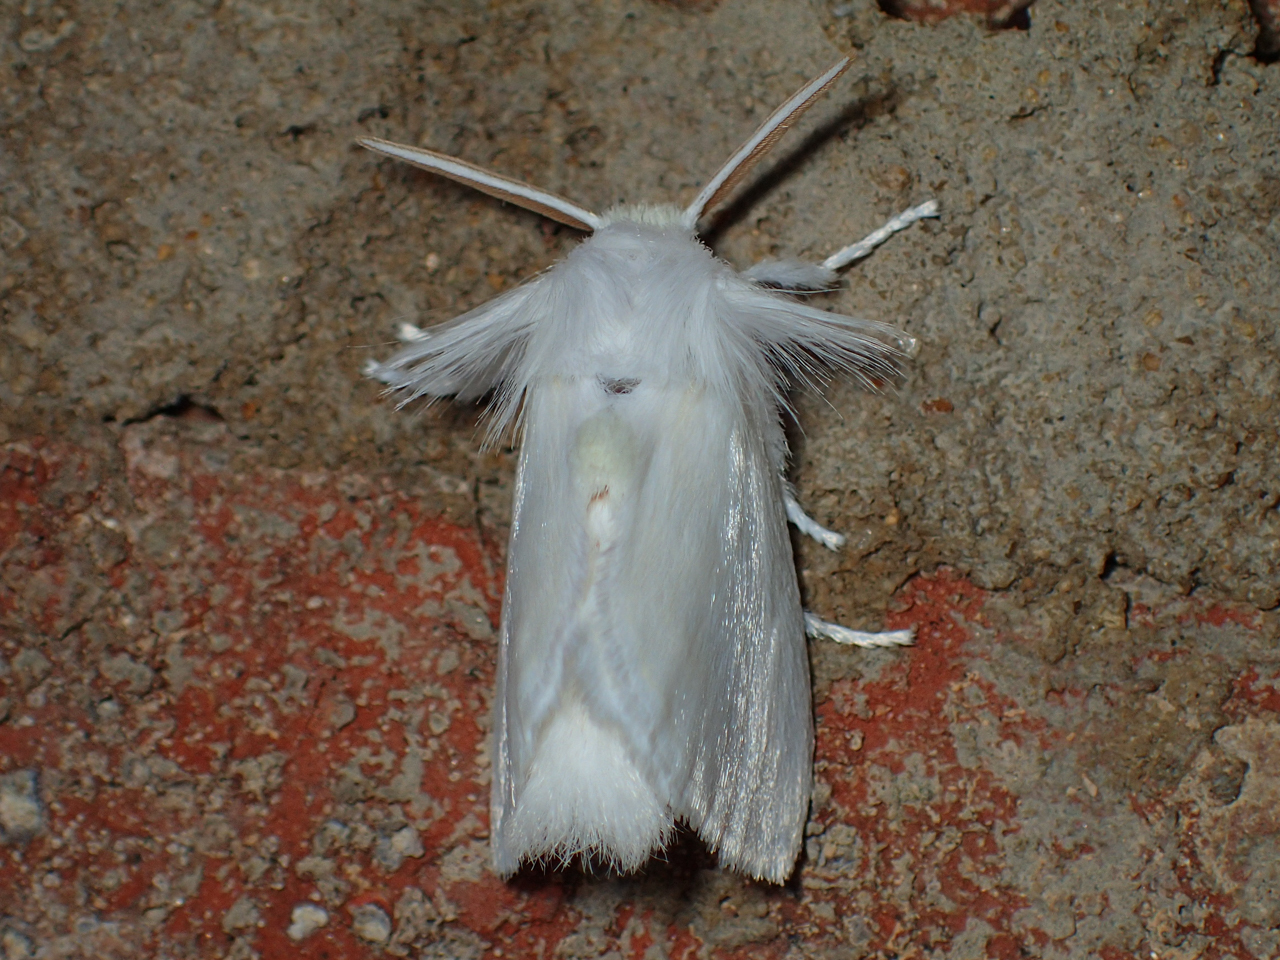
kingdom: Animalia
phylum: Arthropoda
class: Insecta
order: Lepidoptera
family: Megalopygidae
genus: Norape
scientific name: Norape cretata
